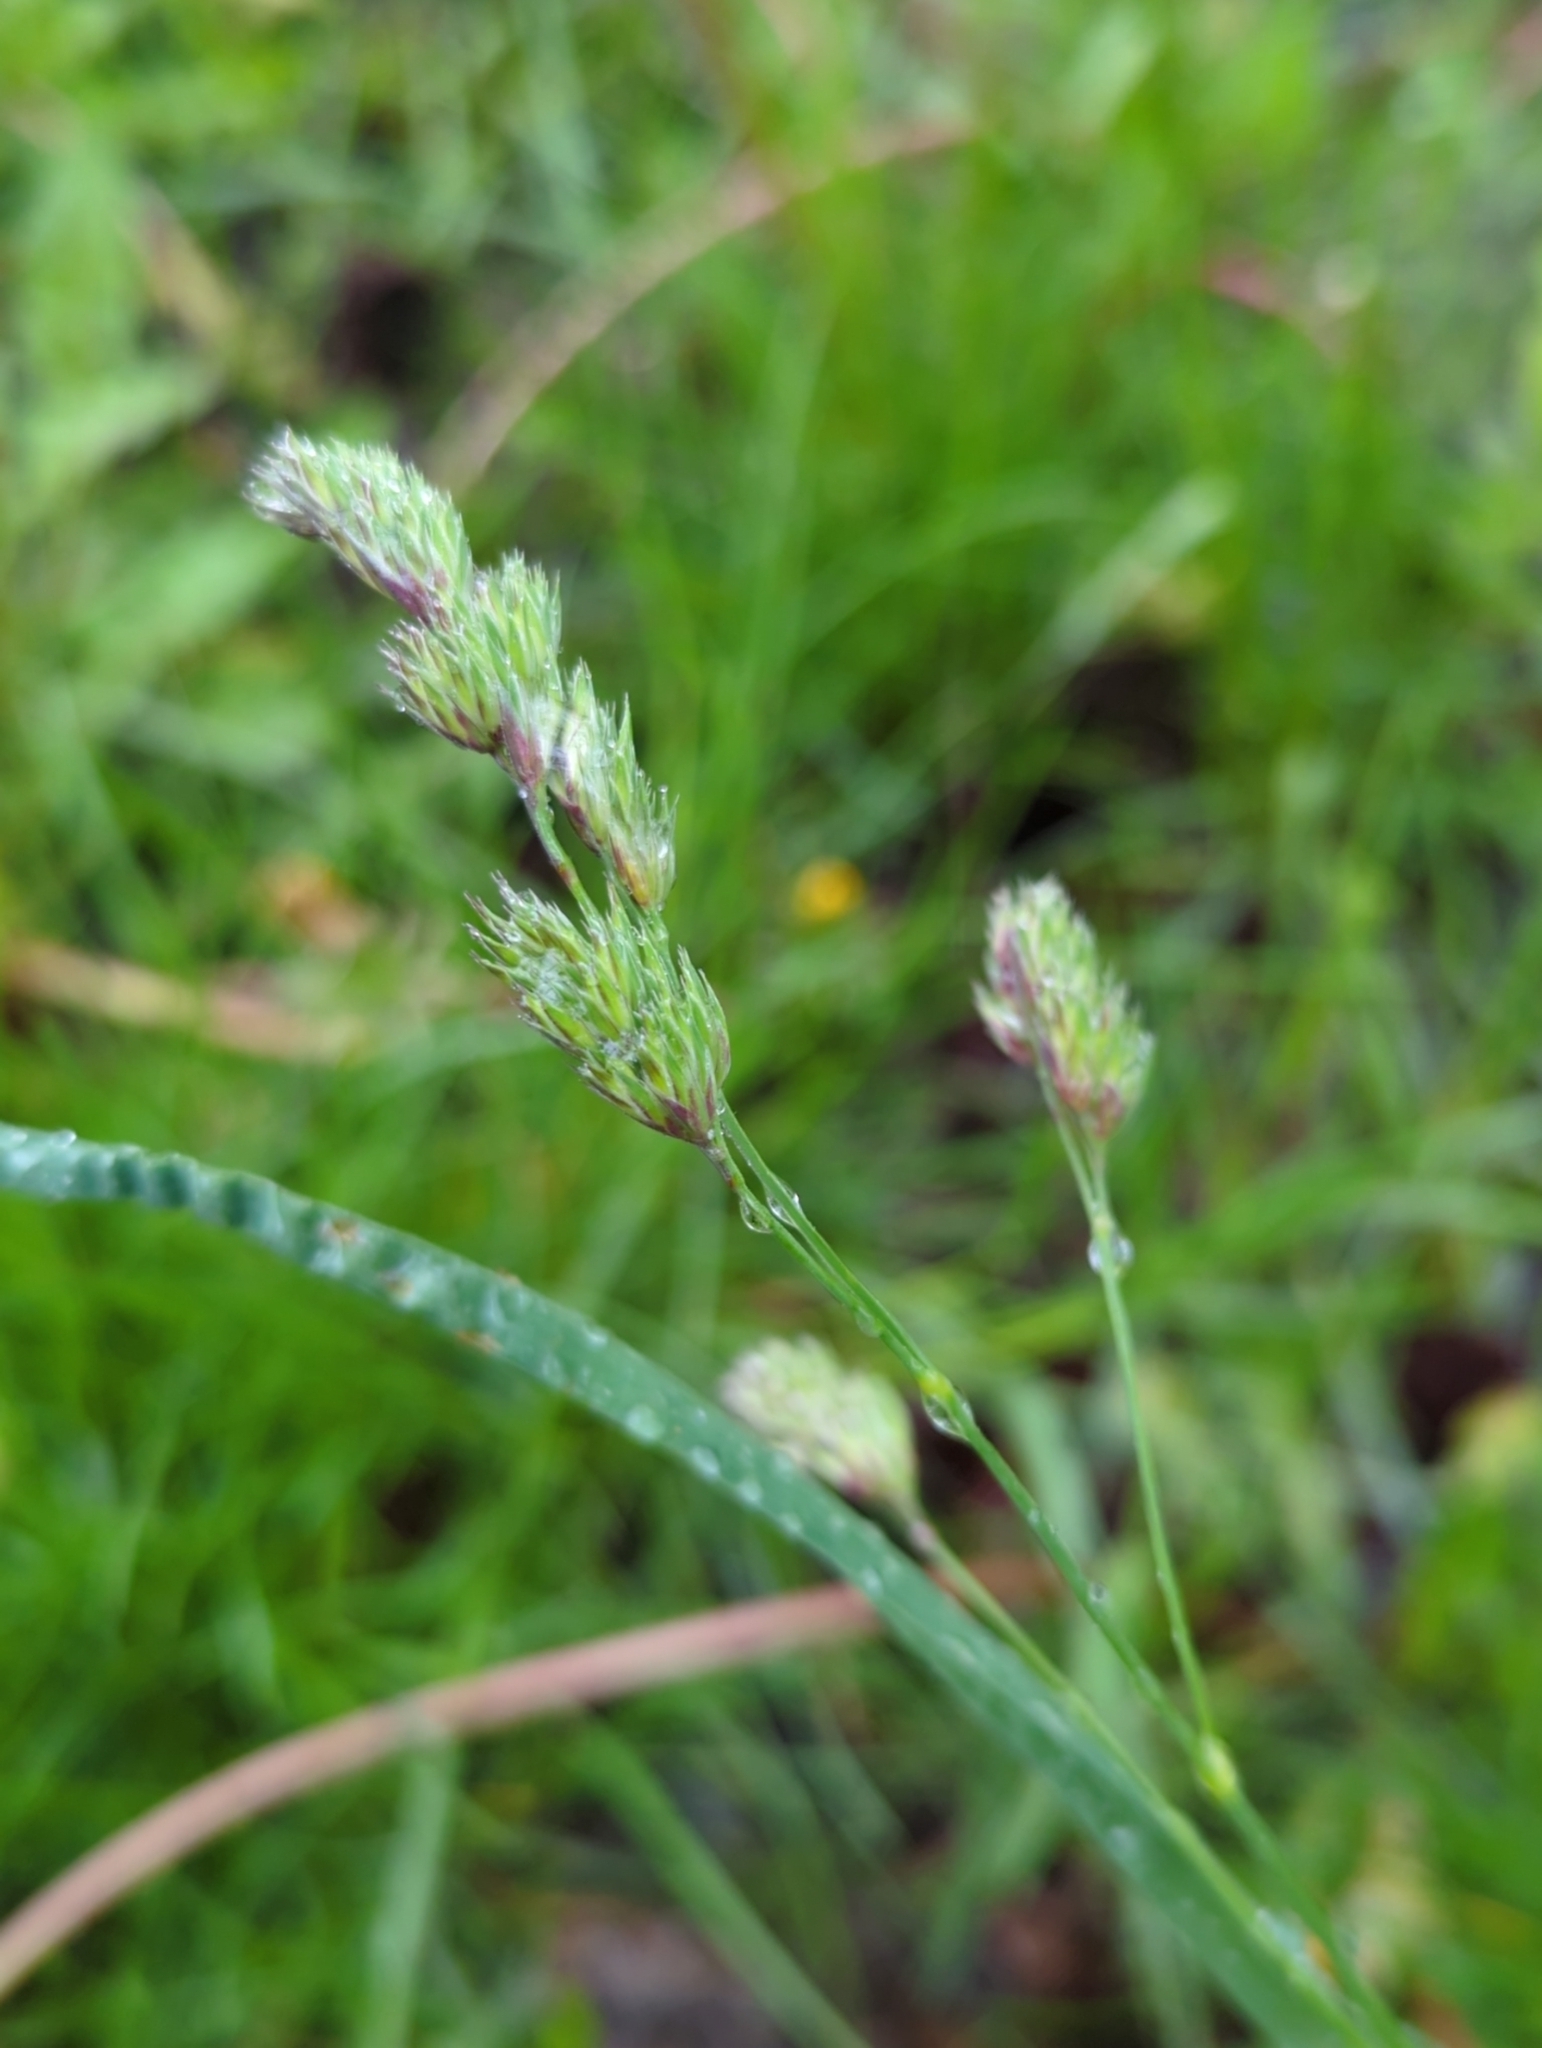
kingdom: Plantae
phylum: Tracheophyta
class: Liliopsida
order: Poales
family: Poaceae
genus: Dactylis
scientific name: Dactylis glomerata
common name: Orchardgrass
